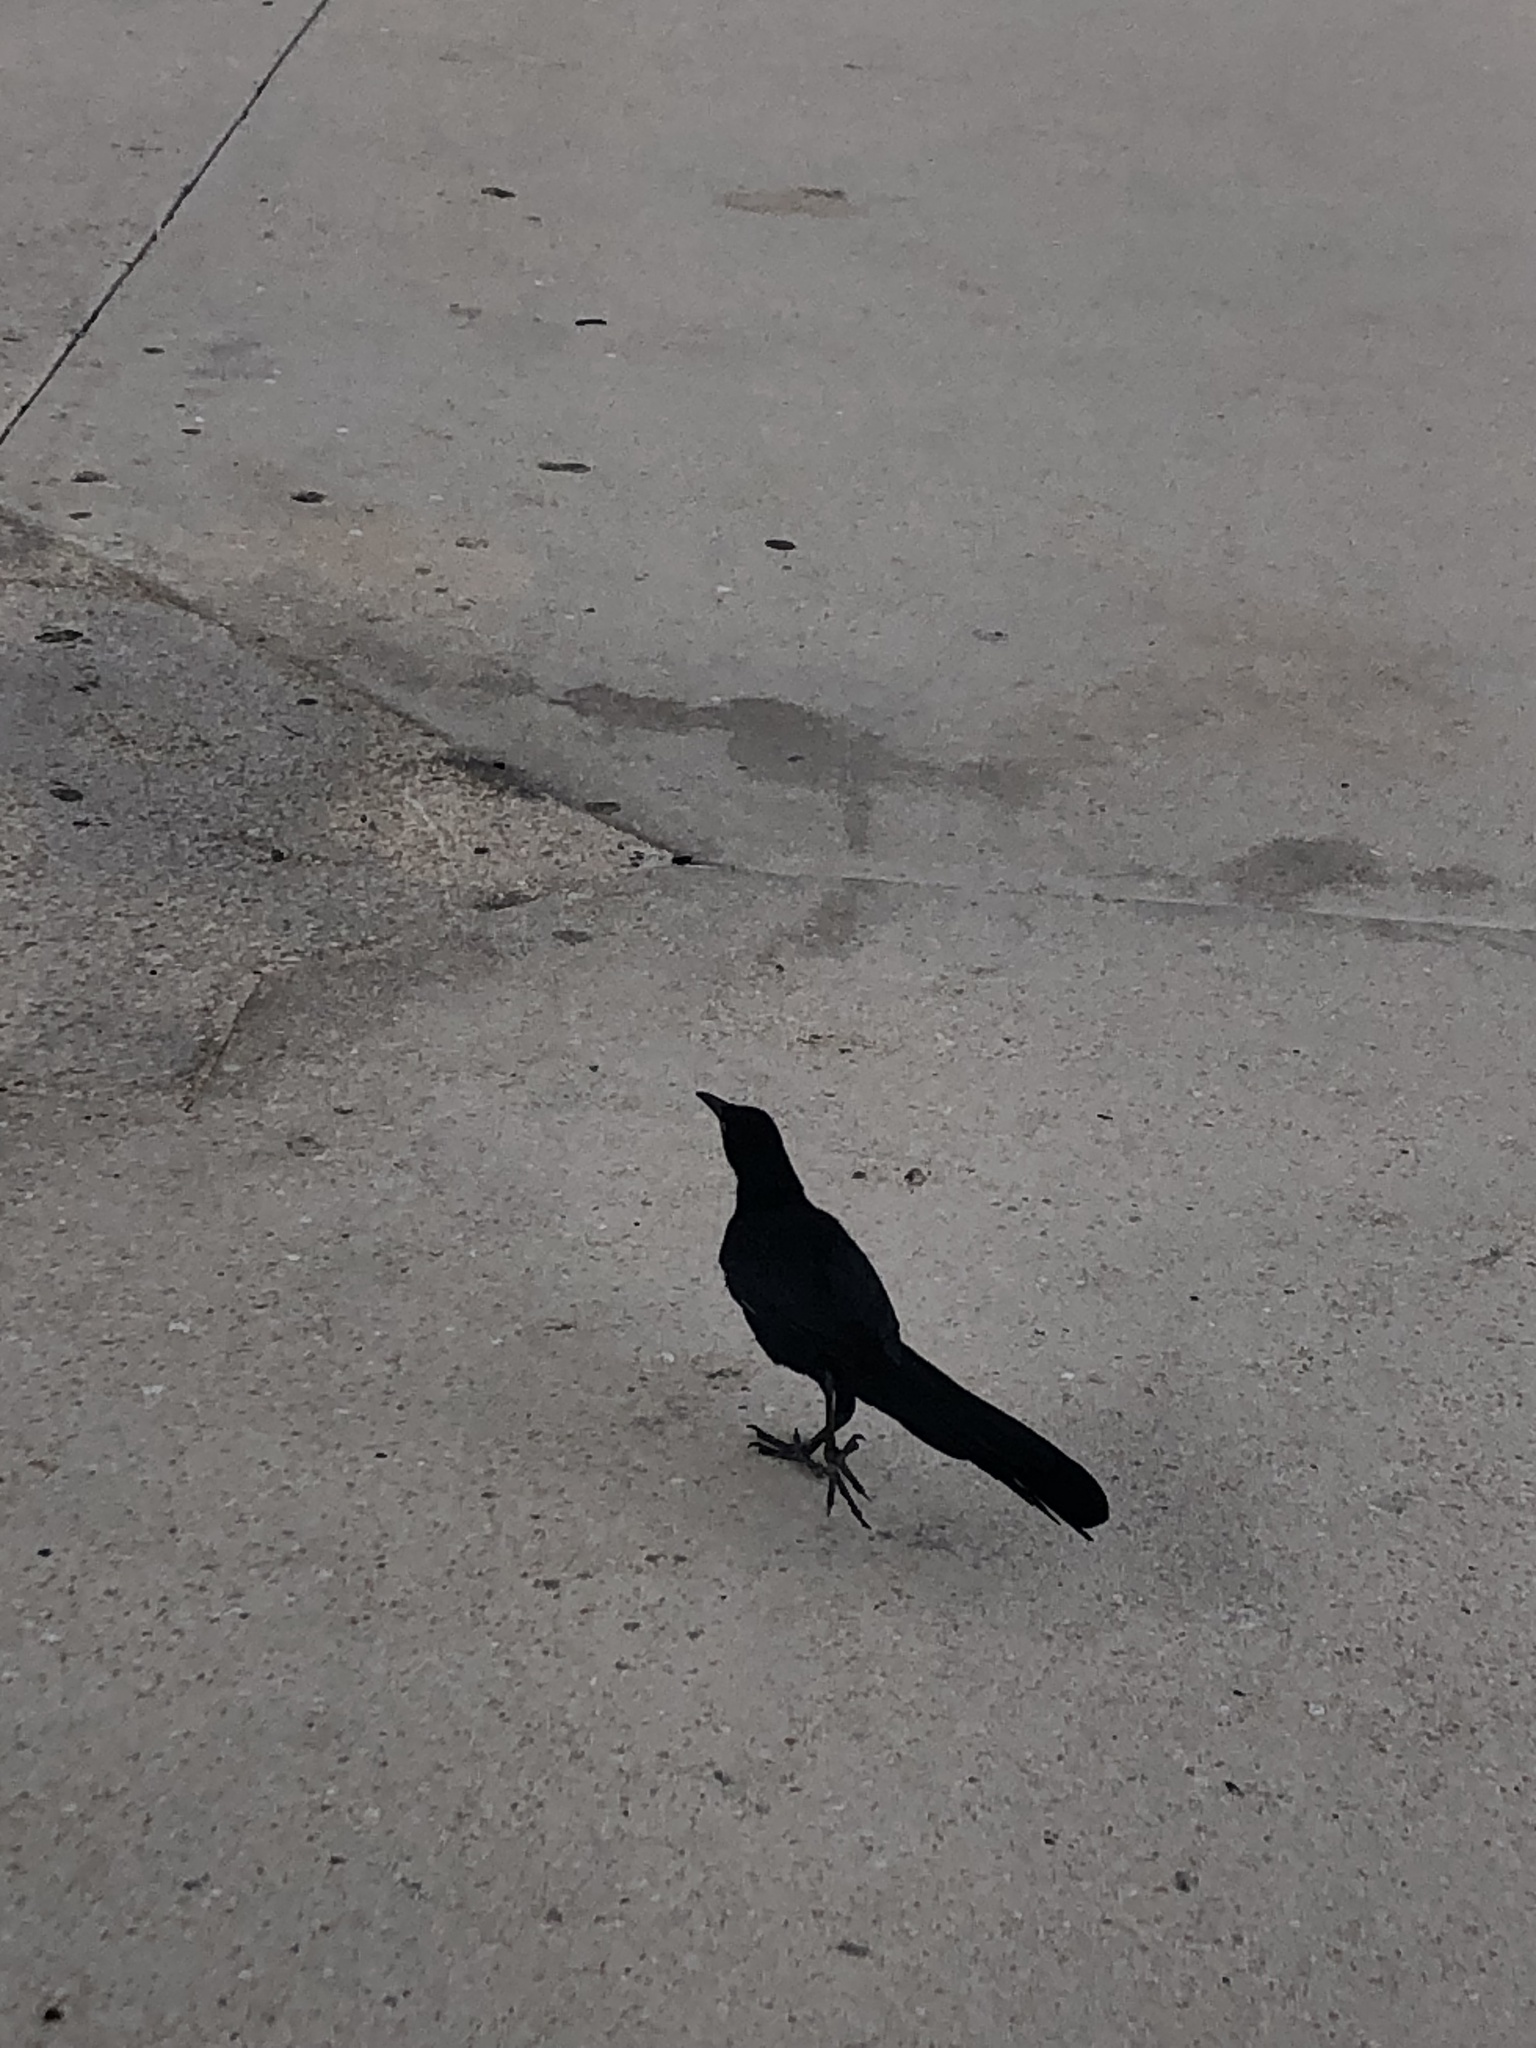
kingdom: Animalia
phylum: Chordata
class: Aves
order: Passeriformes
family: Icteridae
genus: Quiscalus
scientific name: Quiscalus mexicanus
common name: Great-tailed grackle
